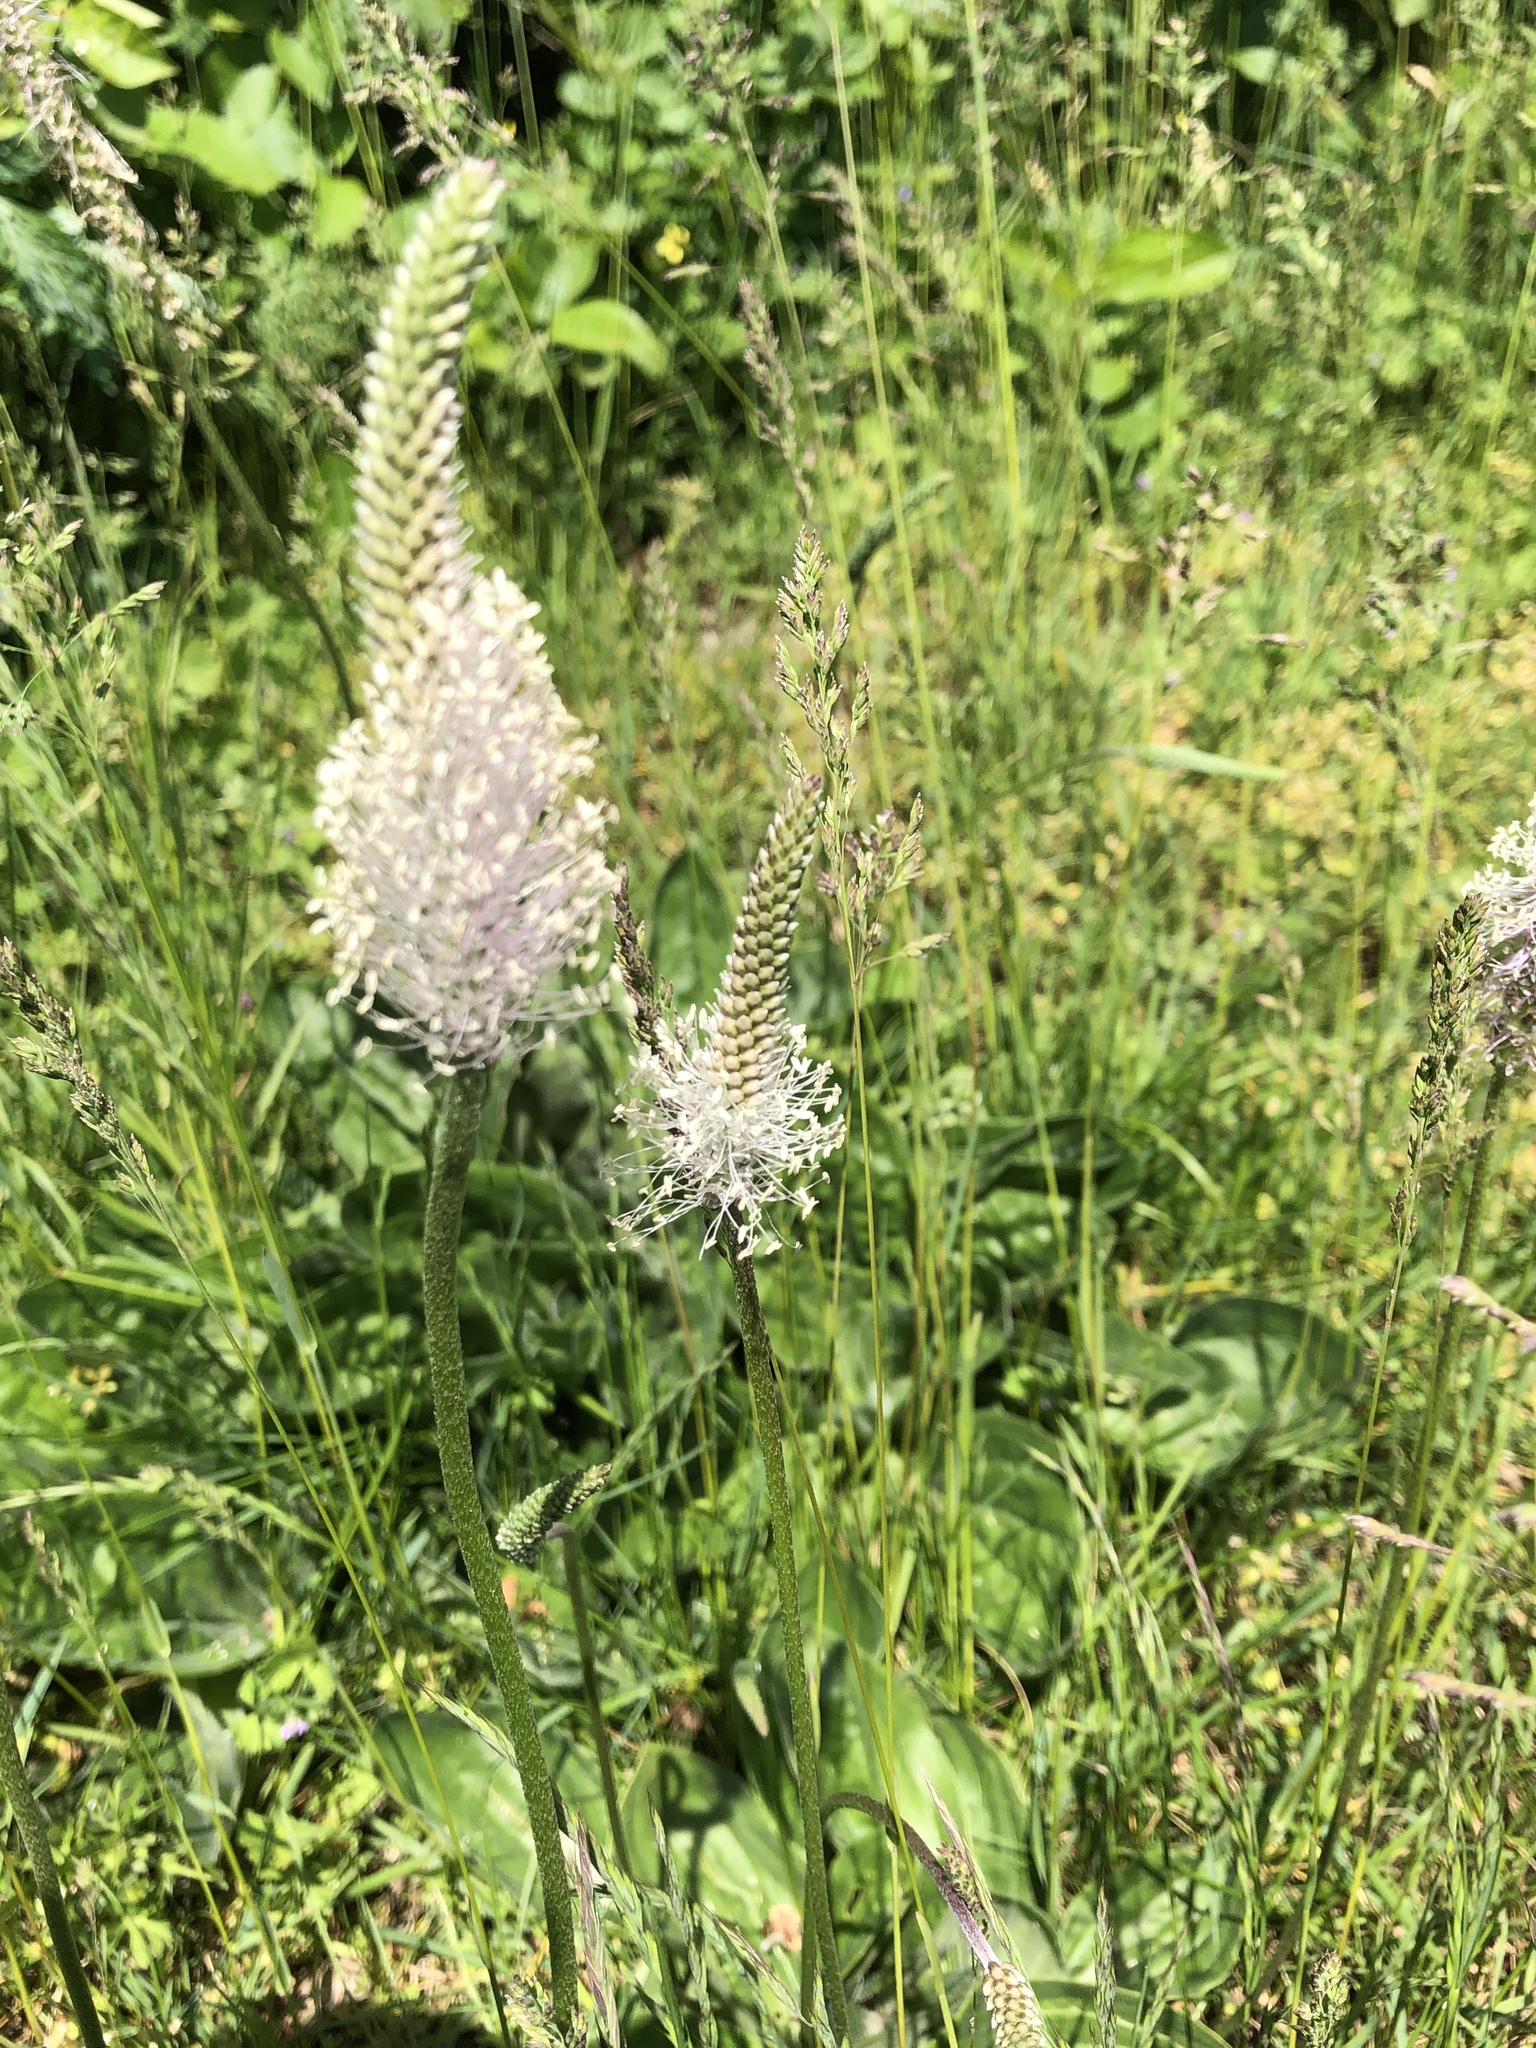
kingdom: Plantae
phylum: Tracheophyta
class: Magnoliopsida
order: Lamiales
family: Plantaginaceae
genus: Plantago
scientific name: Plantago media
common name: Hoary plantain
